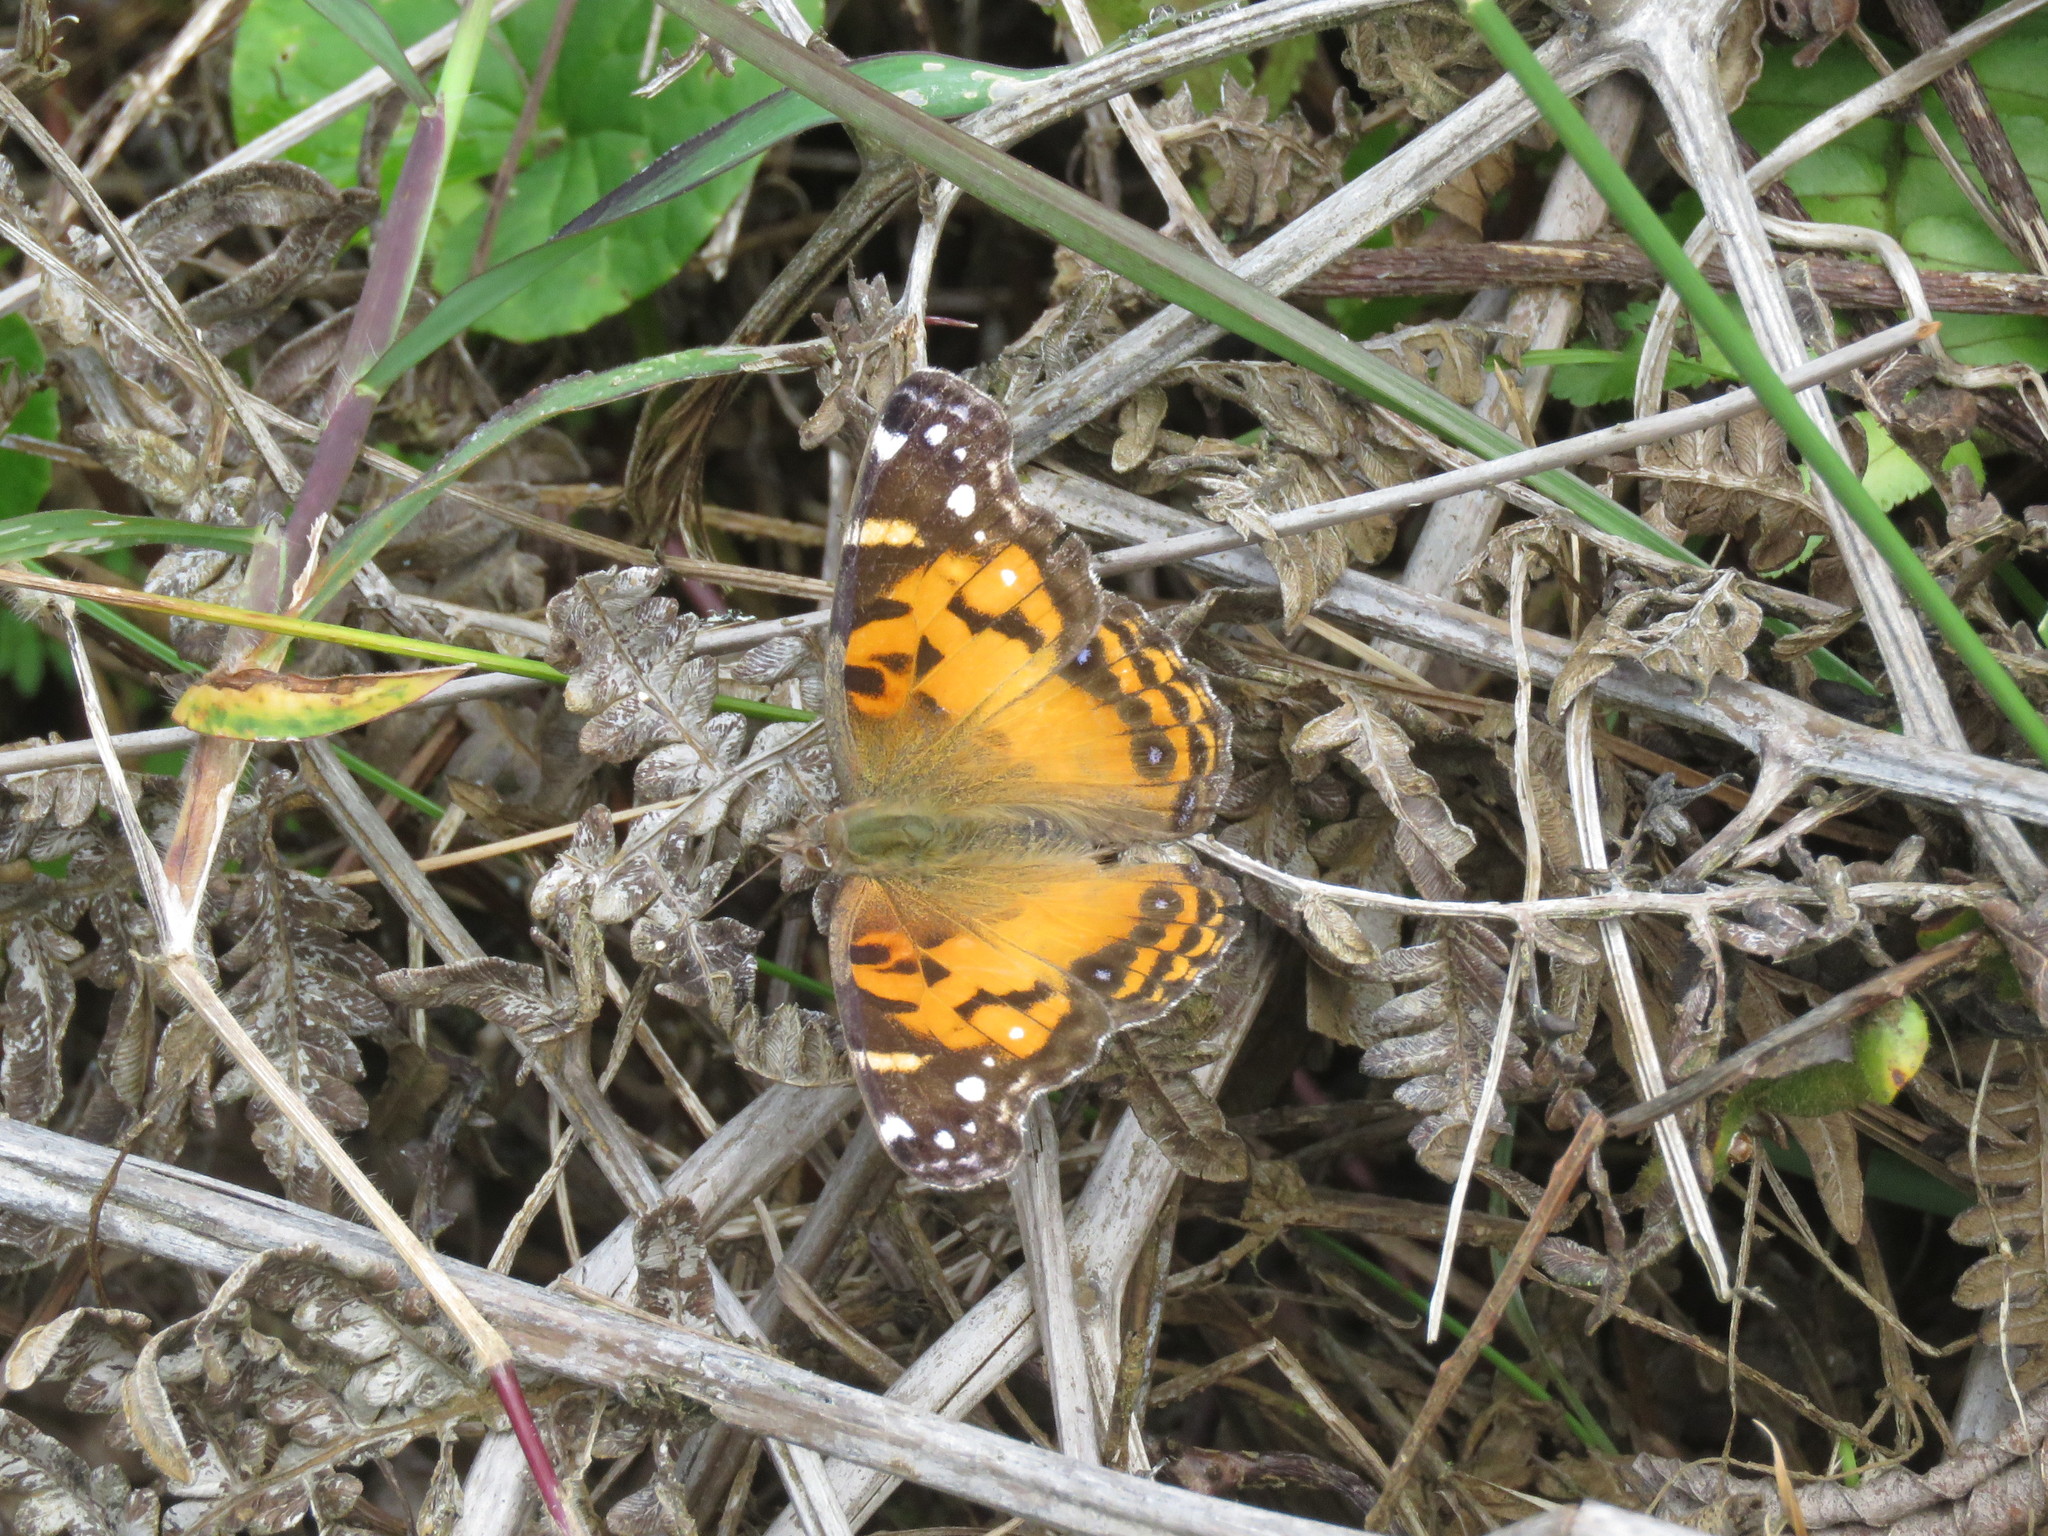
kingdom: Animalia
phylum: Arthropoda
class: Insecta
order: Lepidoptera
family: Nymphalidae
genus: Vanessa
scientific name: Vanessa virginiensis
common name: American lady
